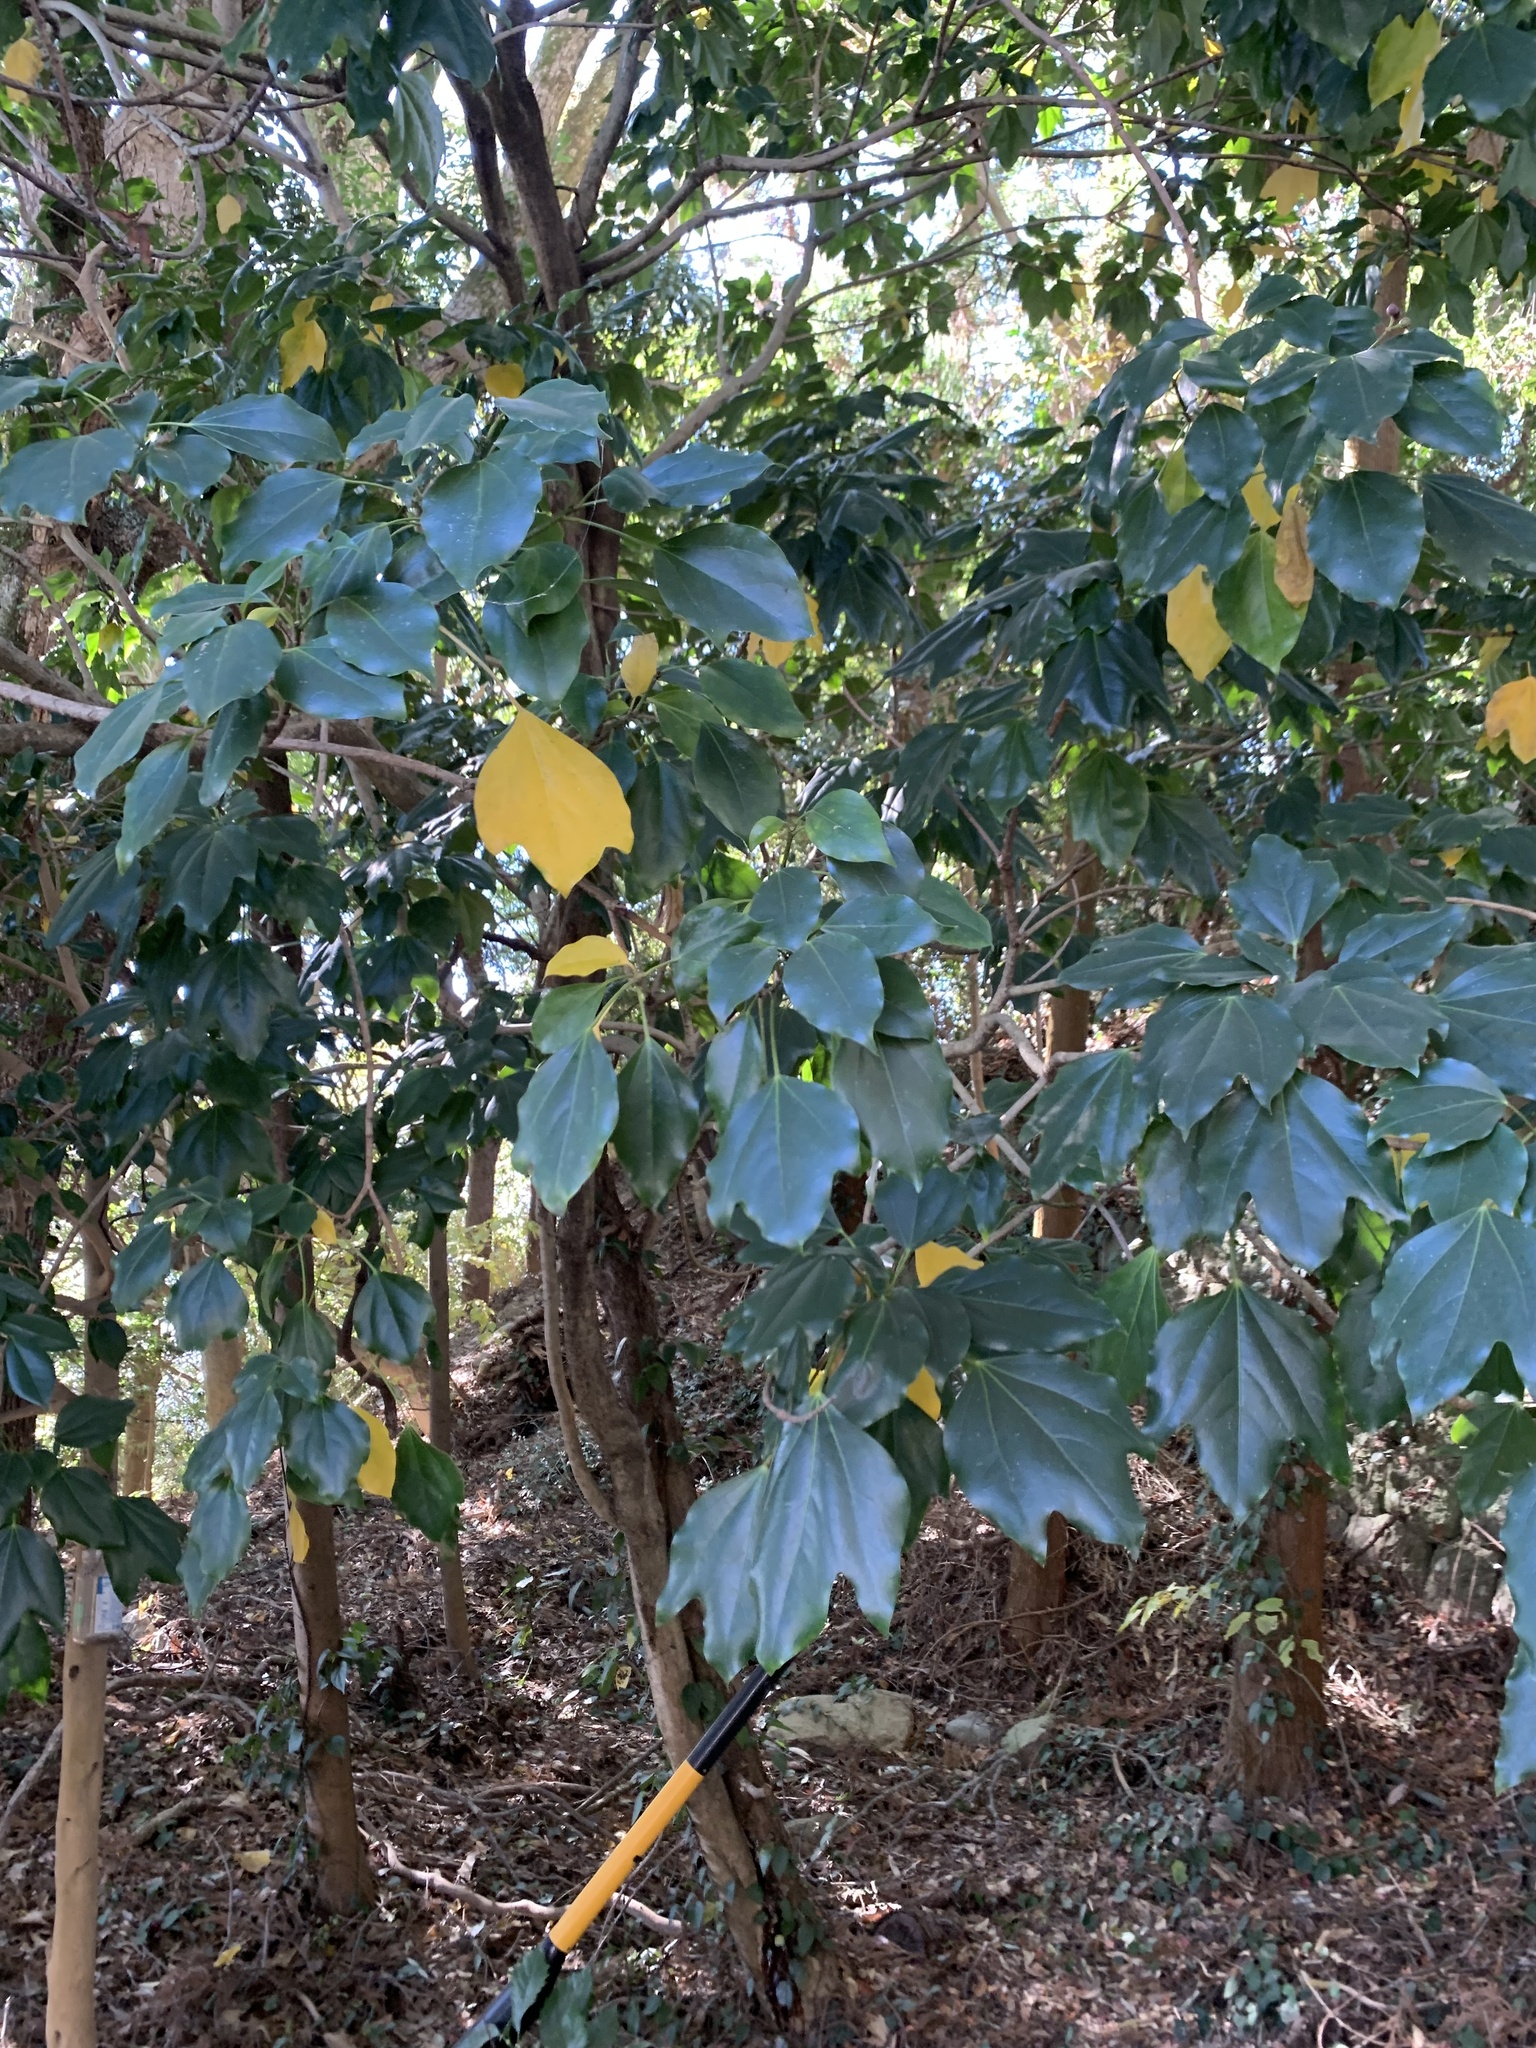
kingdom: Plantae
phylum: Tracheophyta
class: Magnoliopsida
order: Apiales
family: Araliaceae
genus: Dendropanax
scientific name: Dendropanax trifidus
